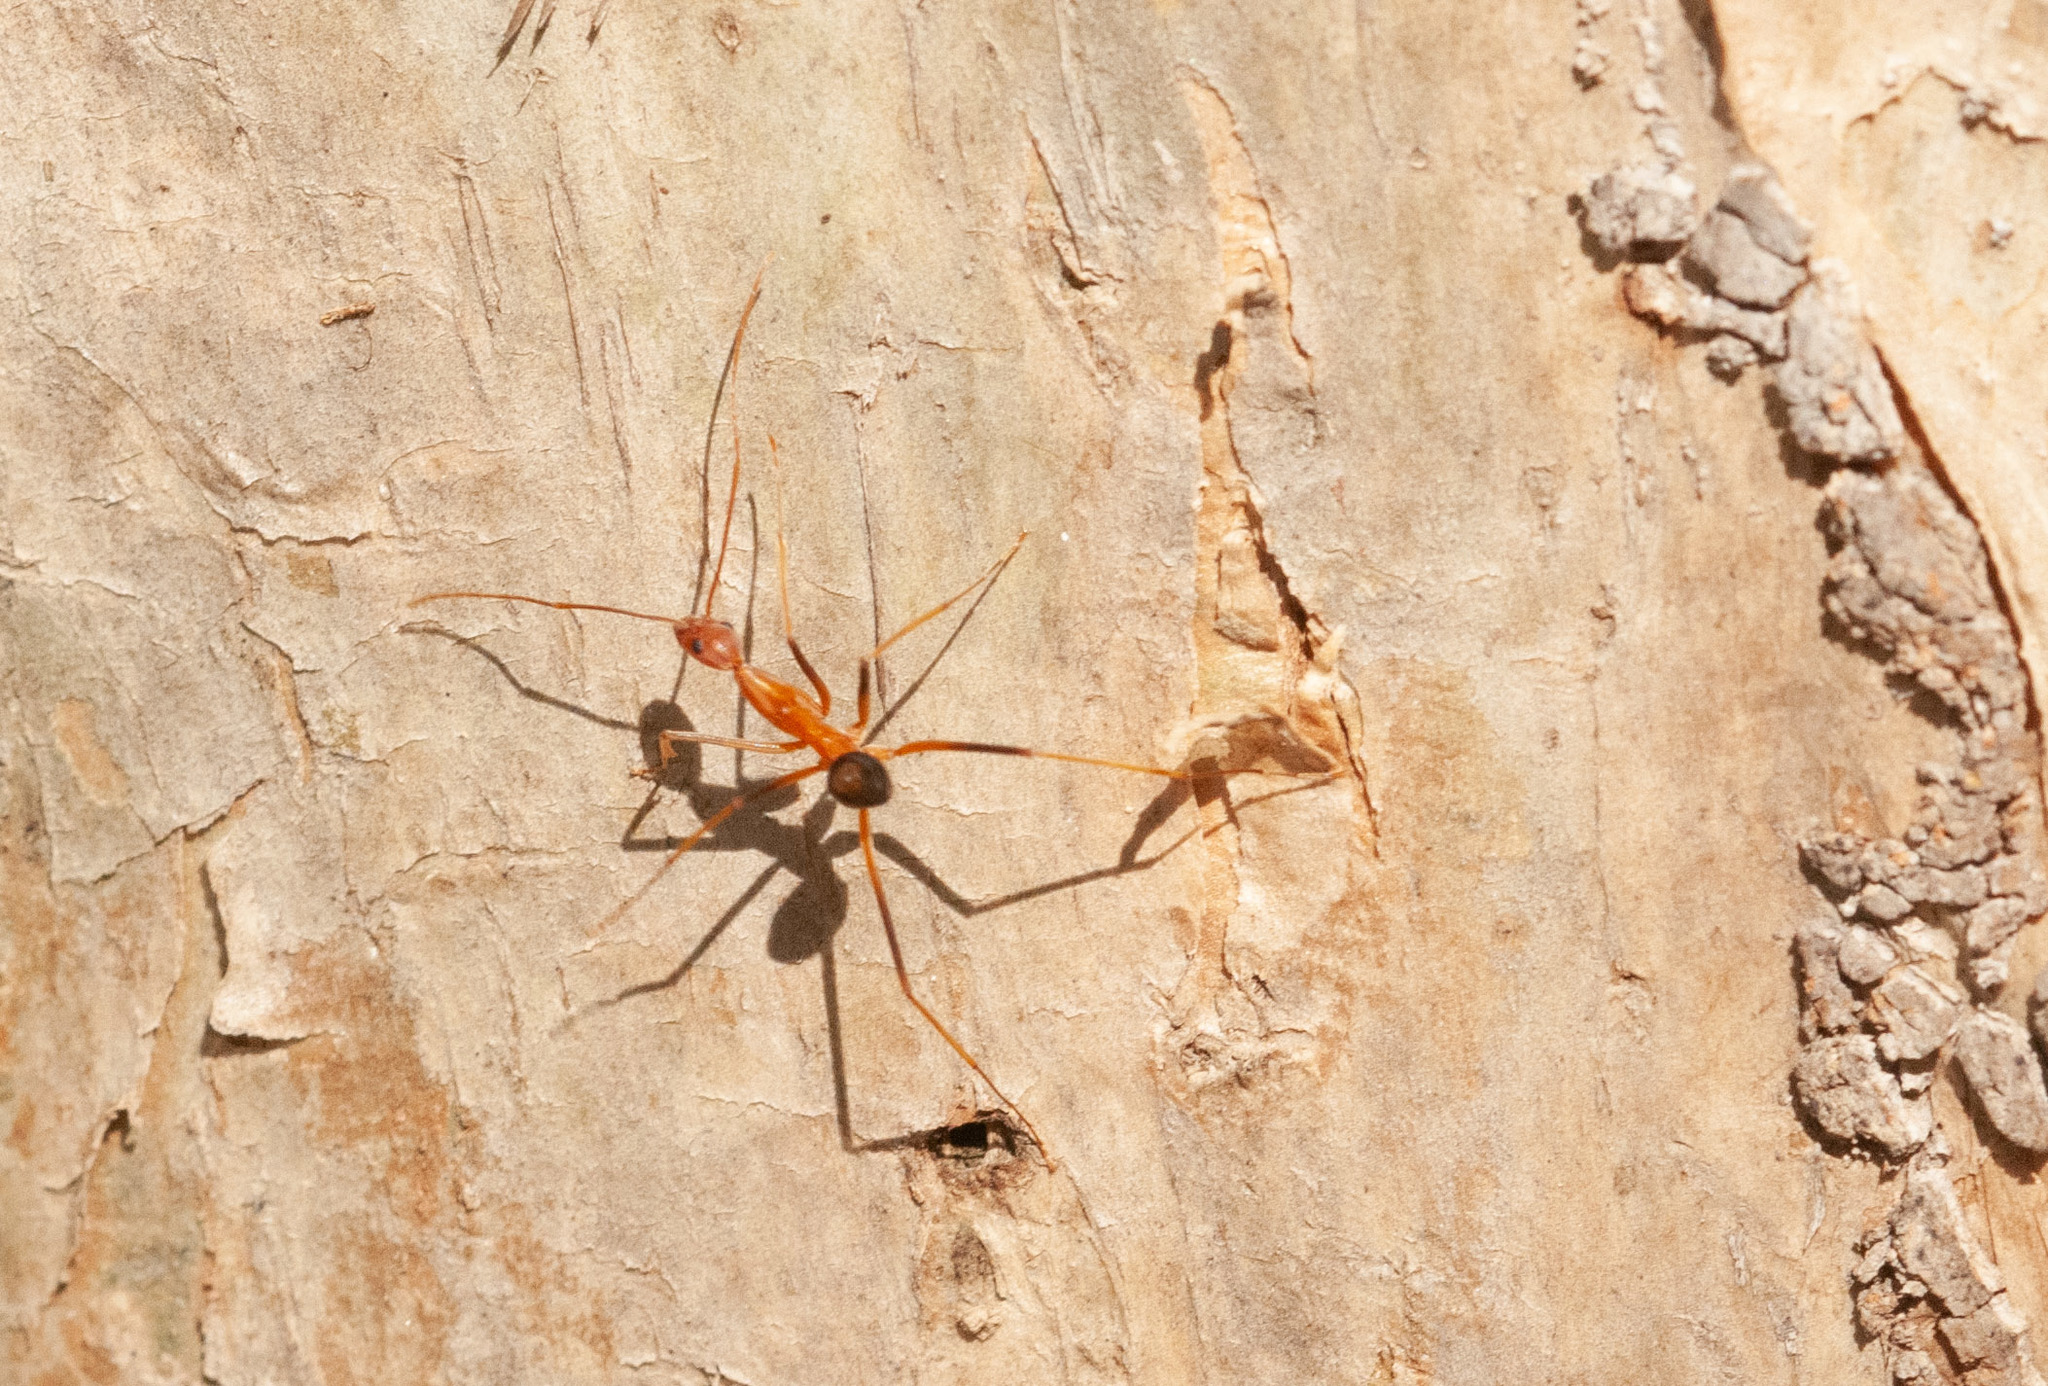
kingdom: Animalia
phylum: Arthropoda
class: Insecta
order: Hymenoptera
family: Formicidae
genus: Leptomyrmex
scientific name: Leptomyrmex rufipes
